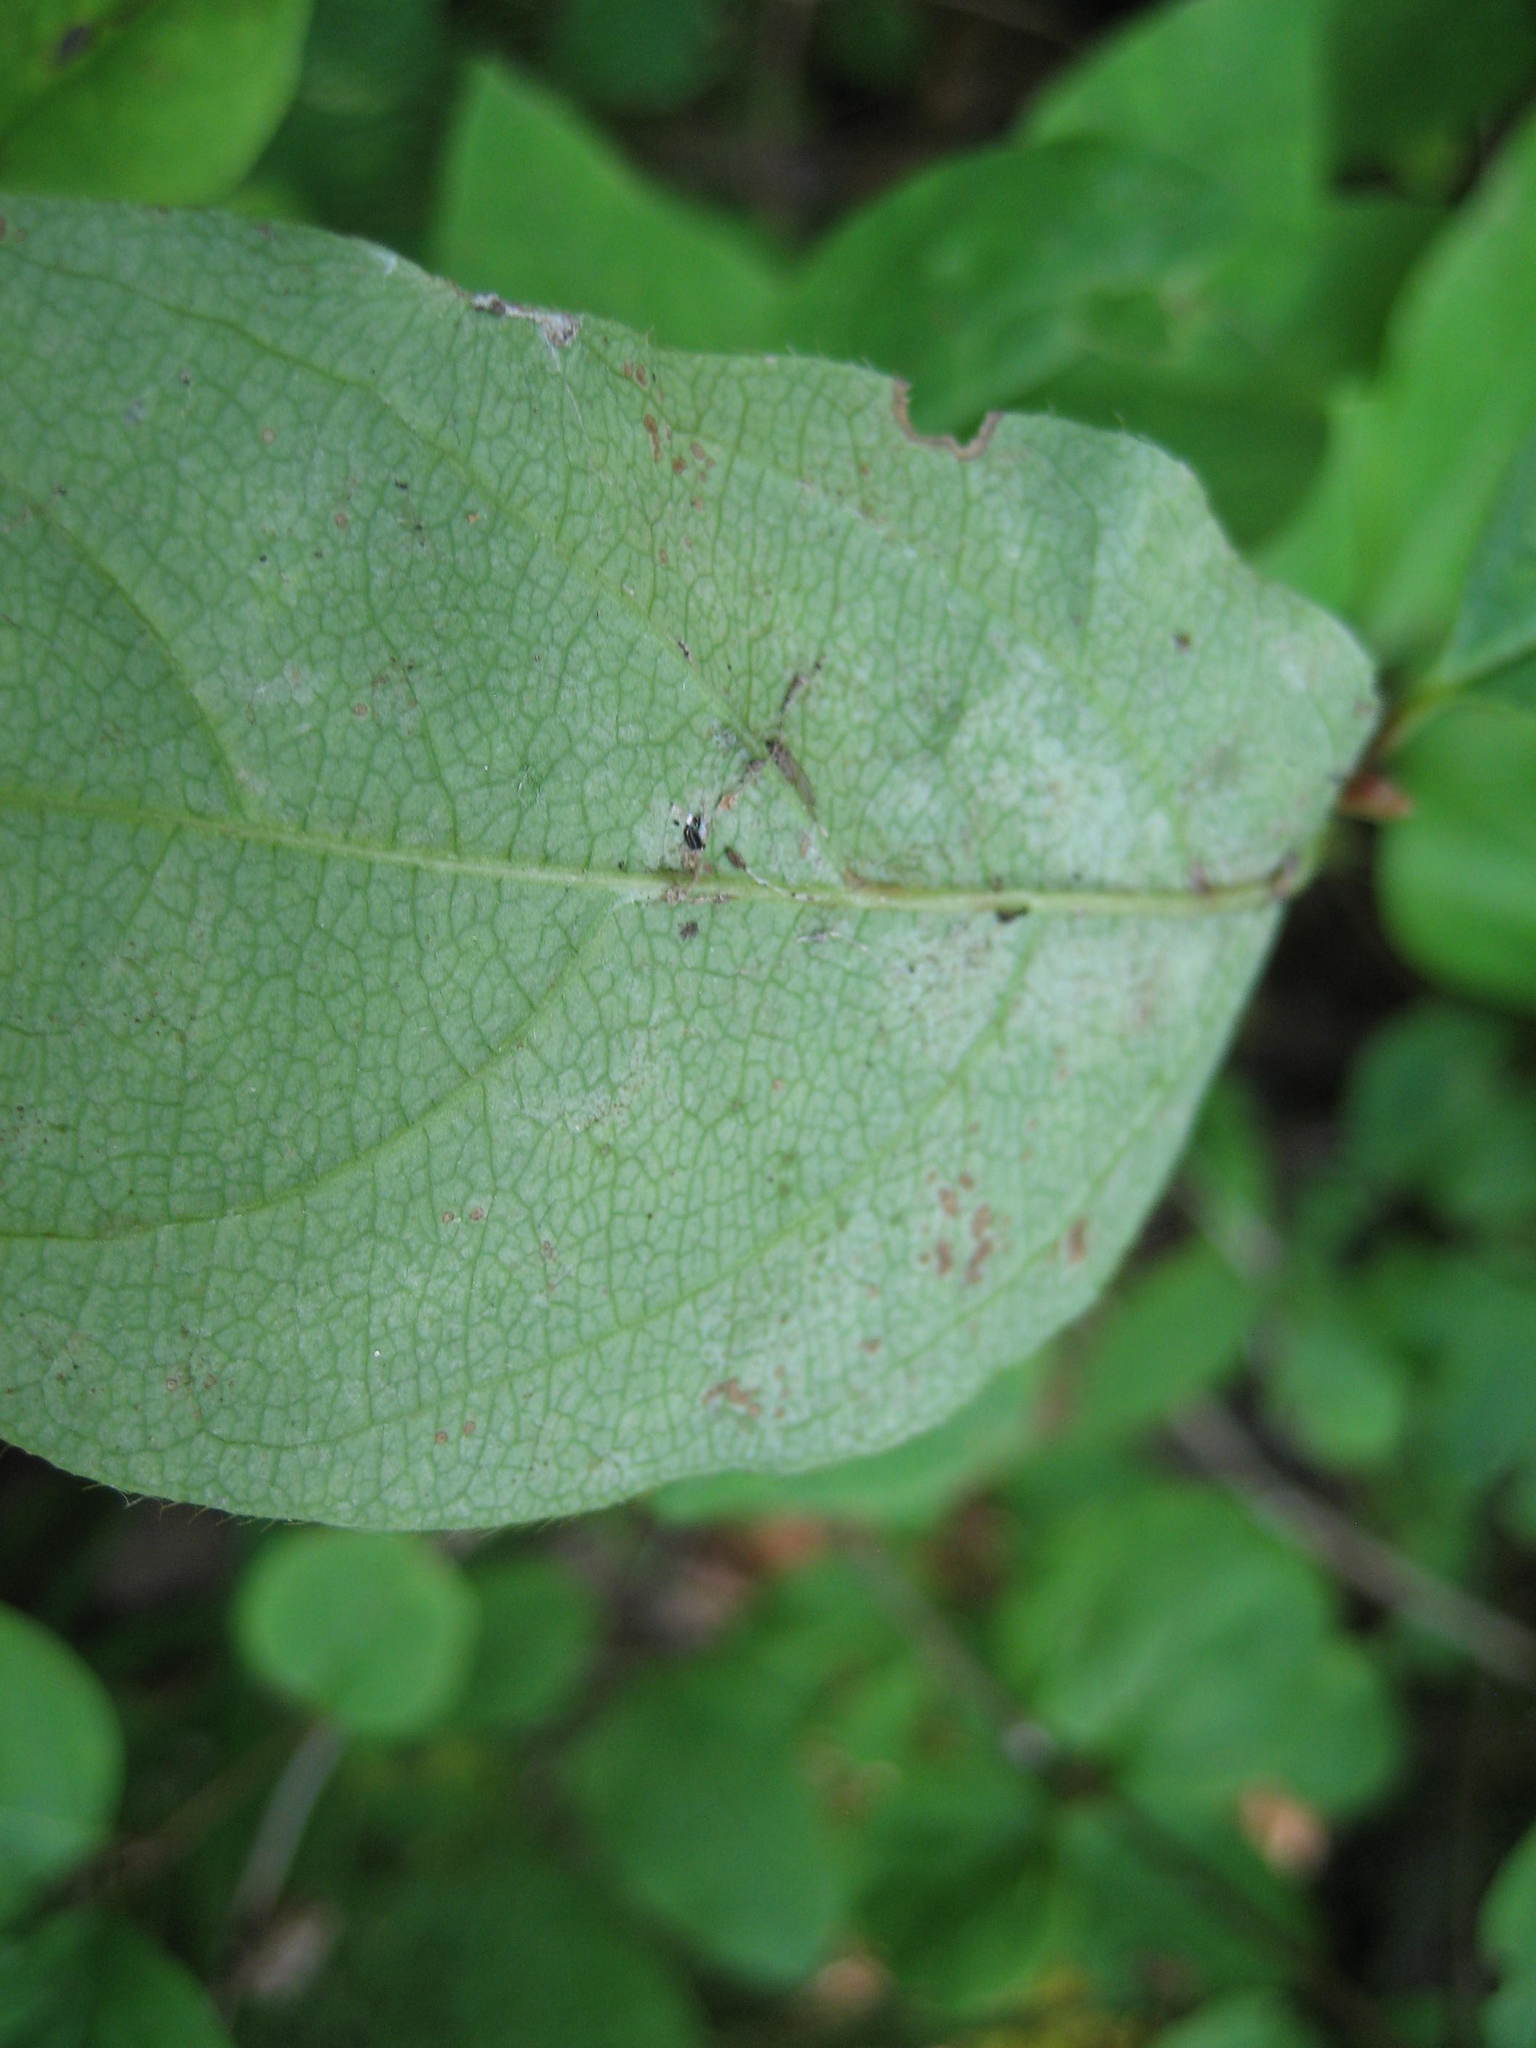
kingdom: Plantae
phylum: Tracheophyta
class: Magnoliopsida
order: Dipsacales
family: Caprifoliaceae
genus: Lonicera
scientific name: Lonicera canadensis
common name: American fly-honeysuckle
